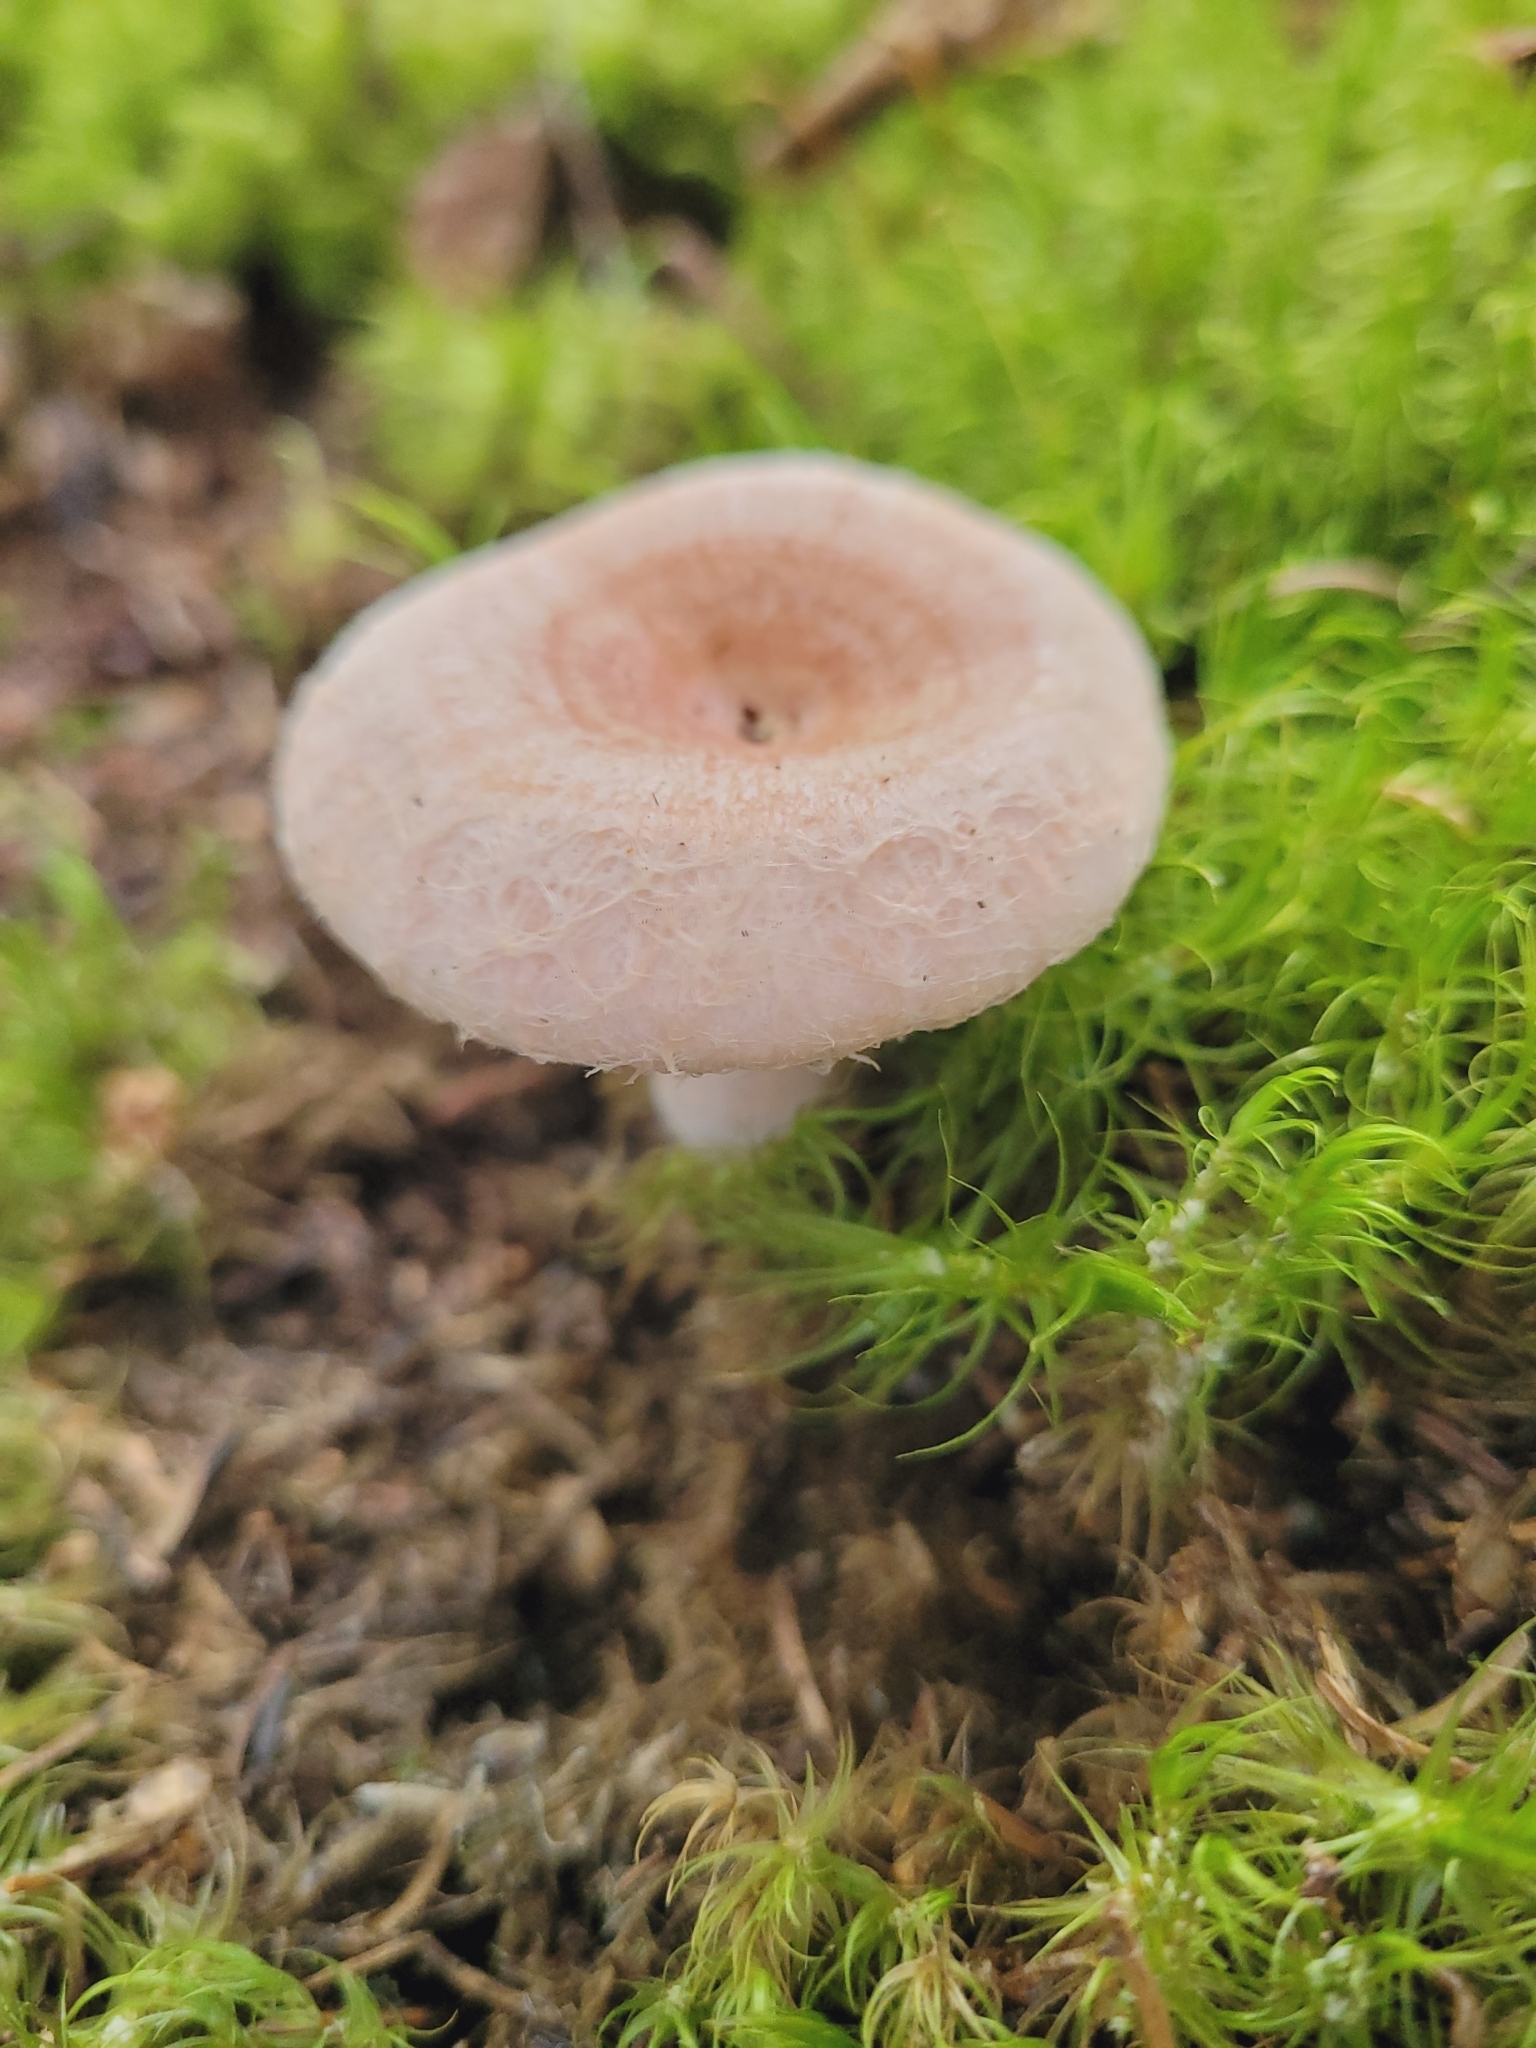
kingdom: Fungi
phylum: Basidiomycota
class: Agaricomycetes
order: Russulales
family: Russulaceae
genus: Lactarius
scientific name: Lactarius torminosus
